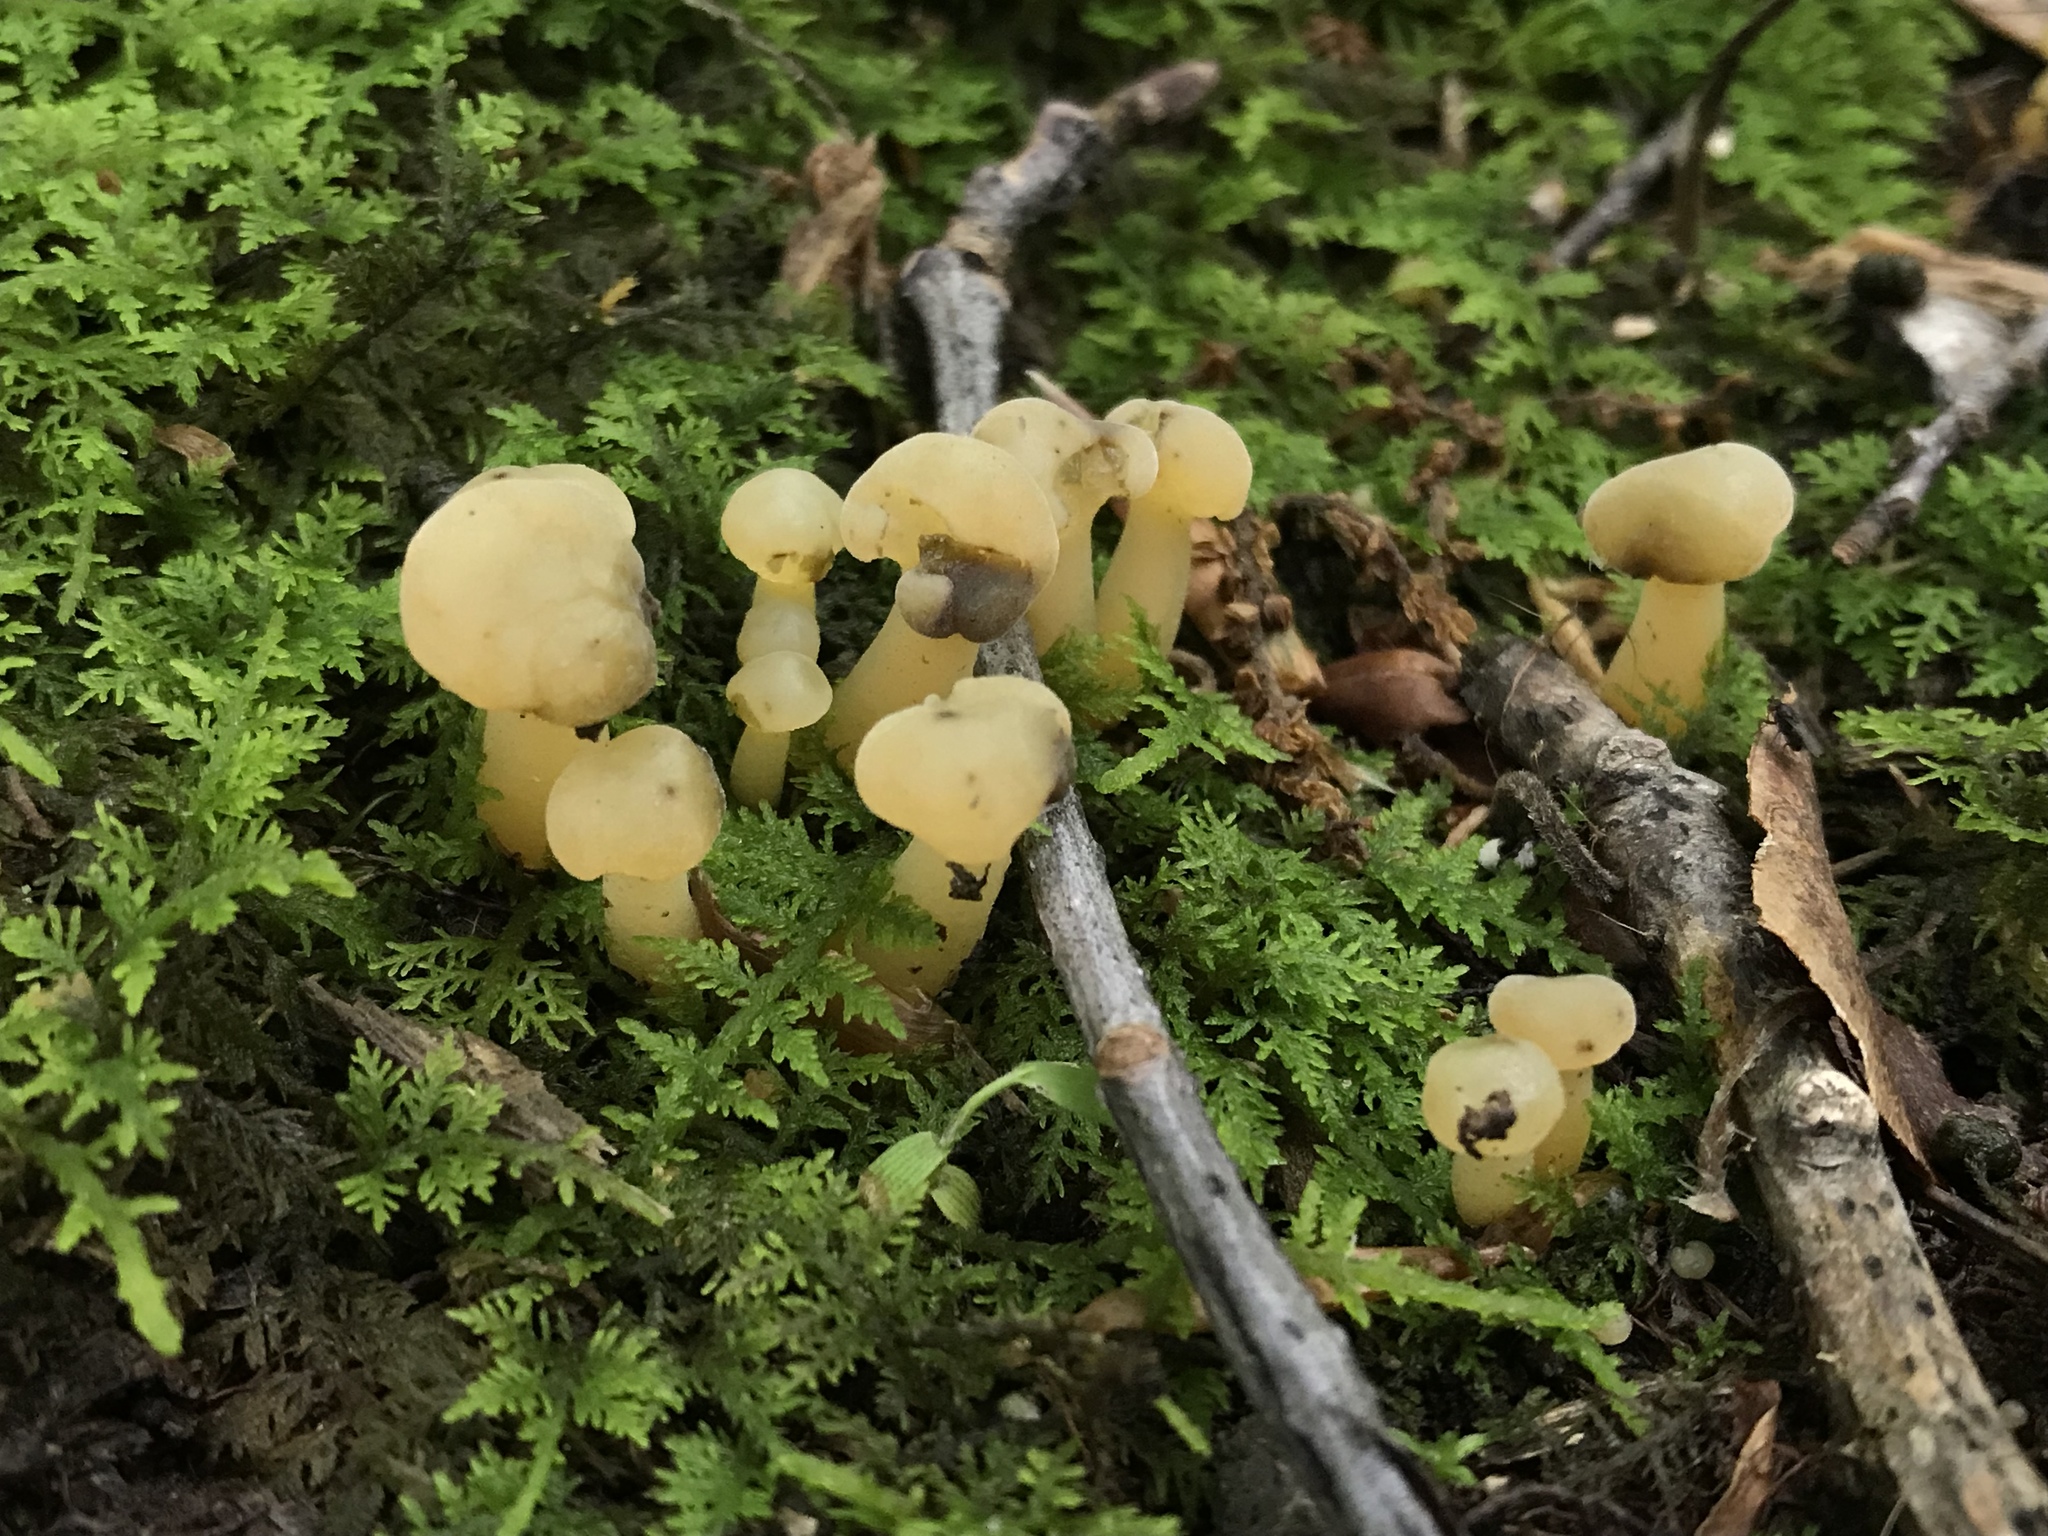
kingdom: Fungi
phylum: Ascomycota
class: Leotiomycetes
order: Leotiales
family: Leotiaceae
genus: Leotia
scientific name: Leotia lubrica
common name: Jellybaby
